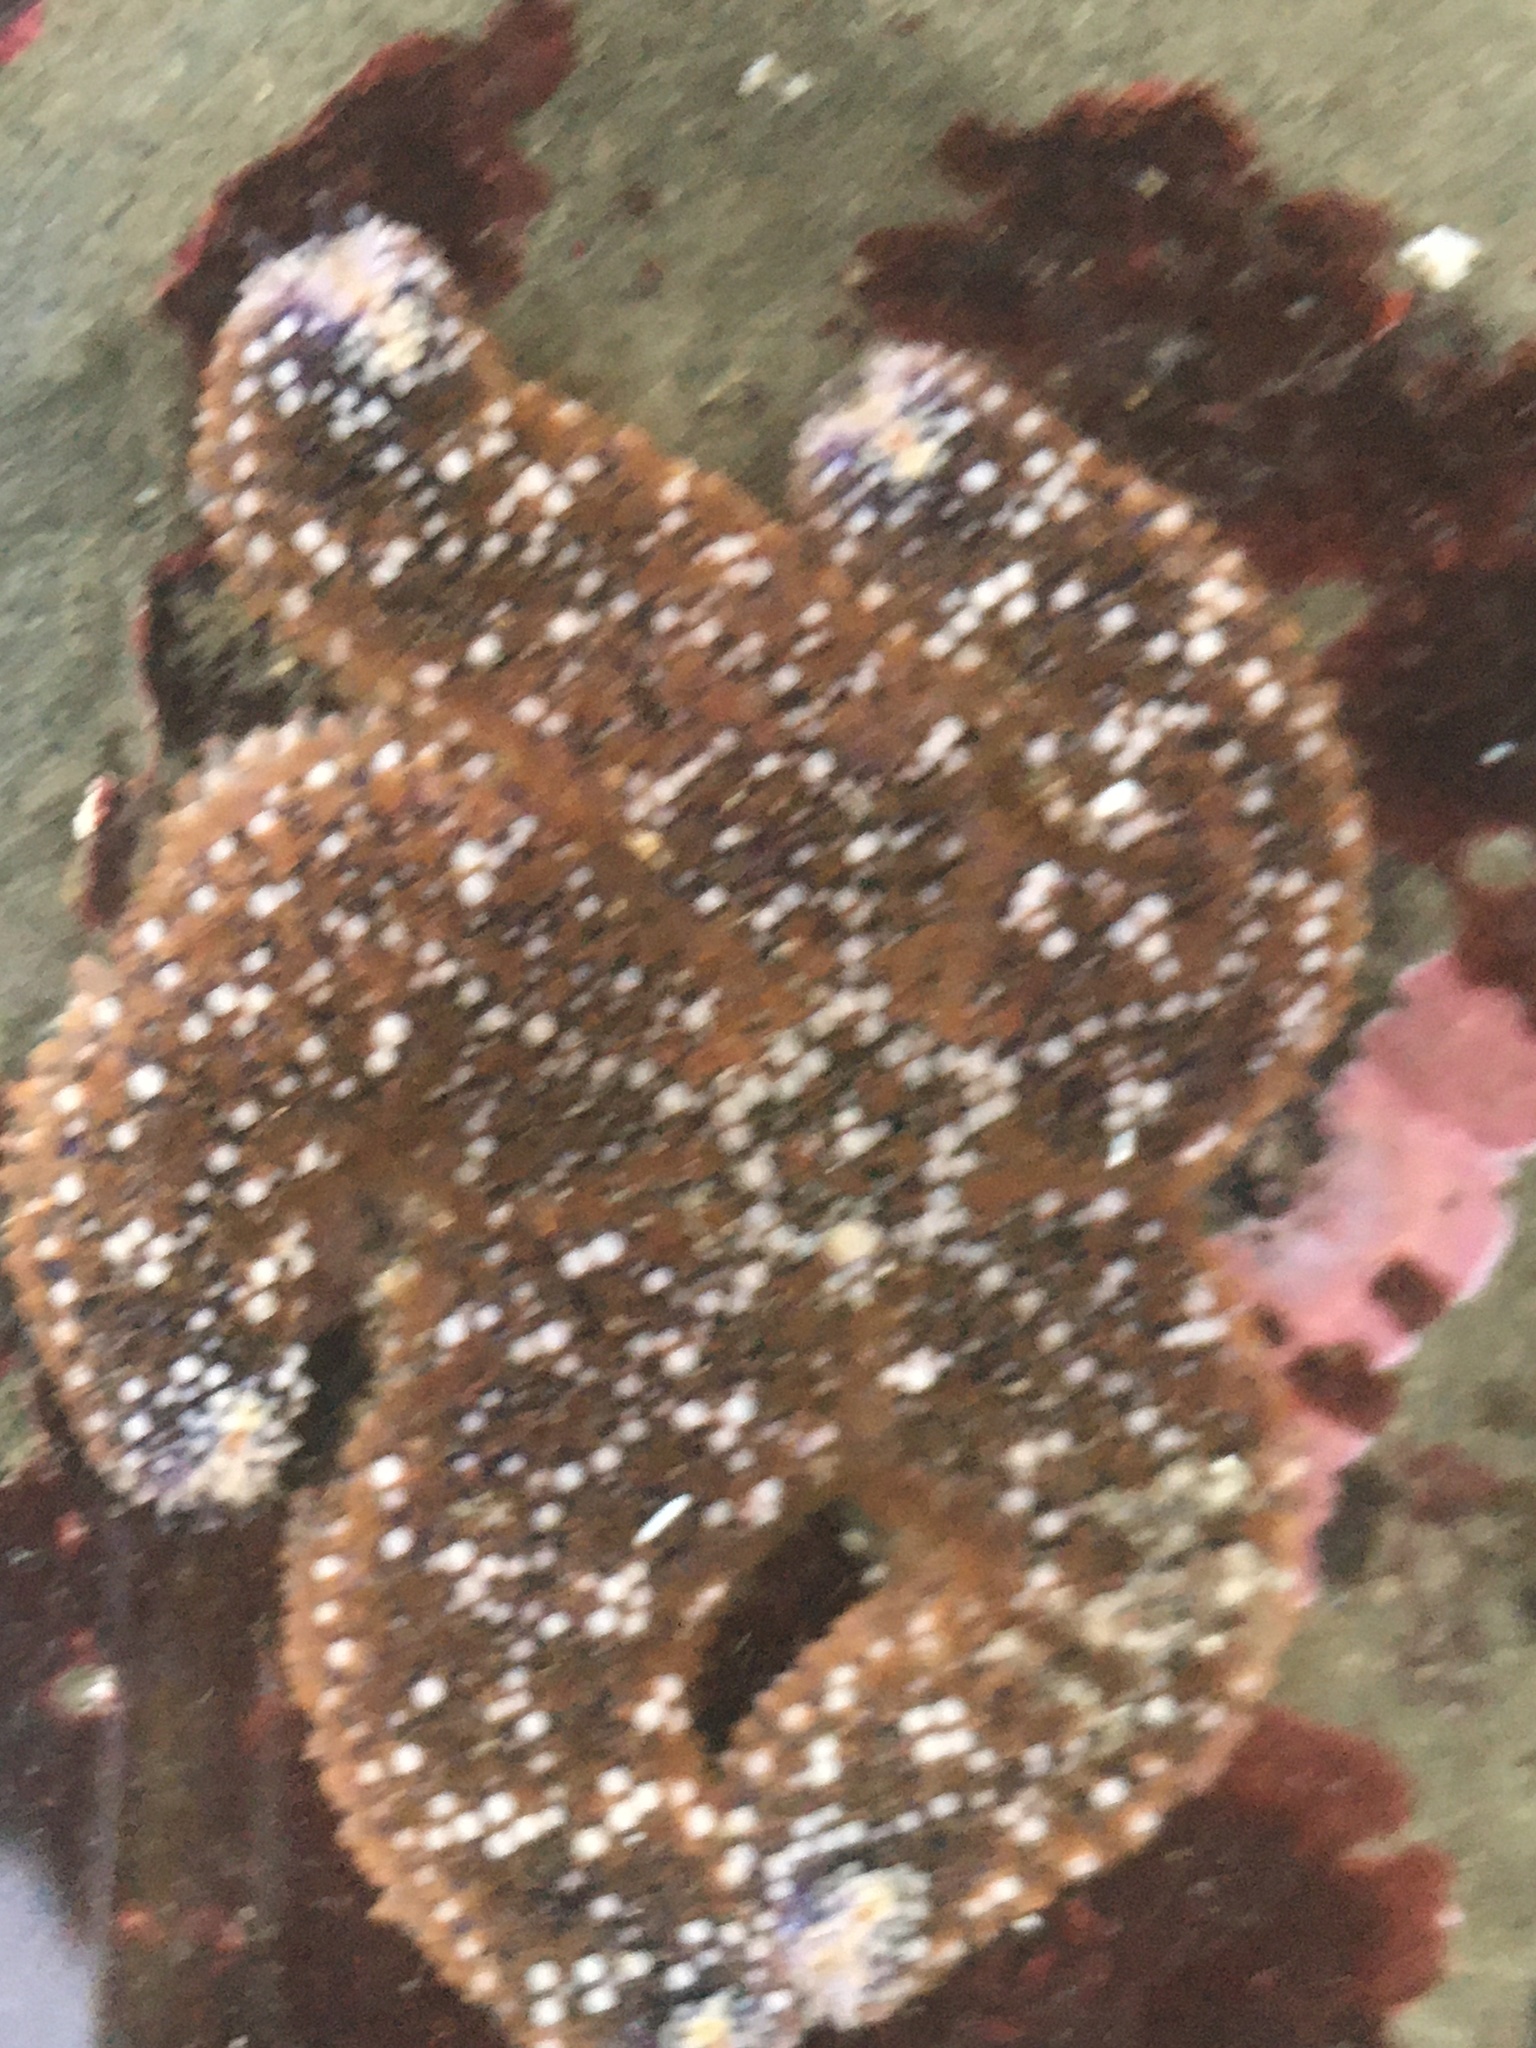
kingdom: Animalia
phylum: Echinodermata
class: Asteroidea
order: Forcipulatida
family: Asteriidae
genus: Pisaster
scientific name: Pisaster ochraceus
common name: Ochre stars
